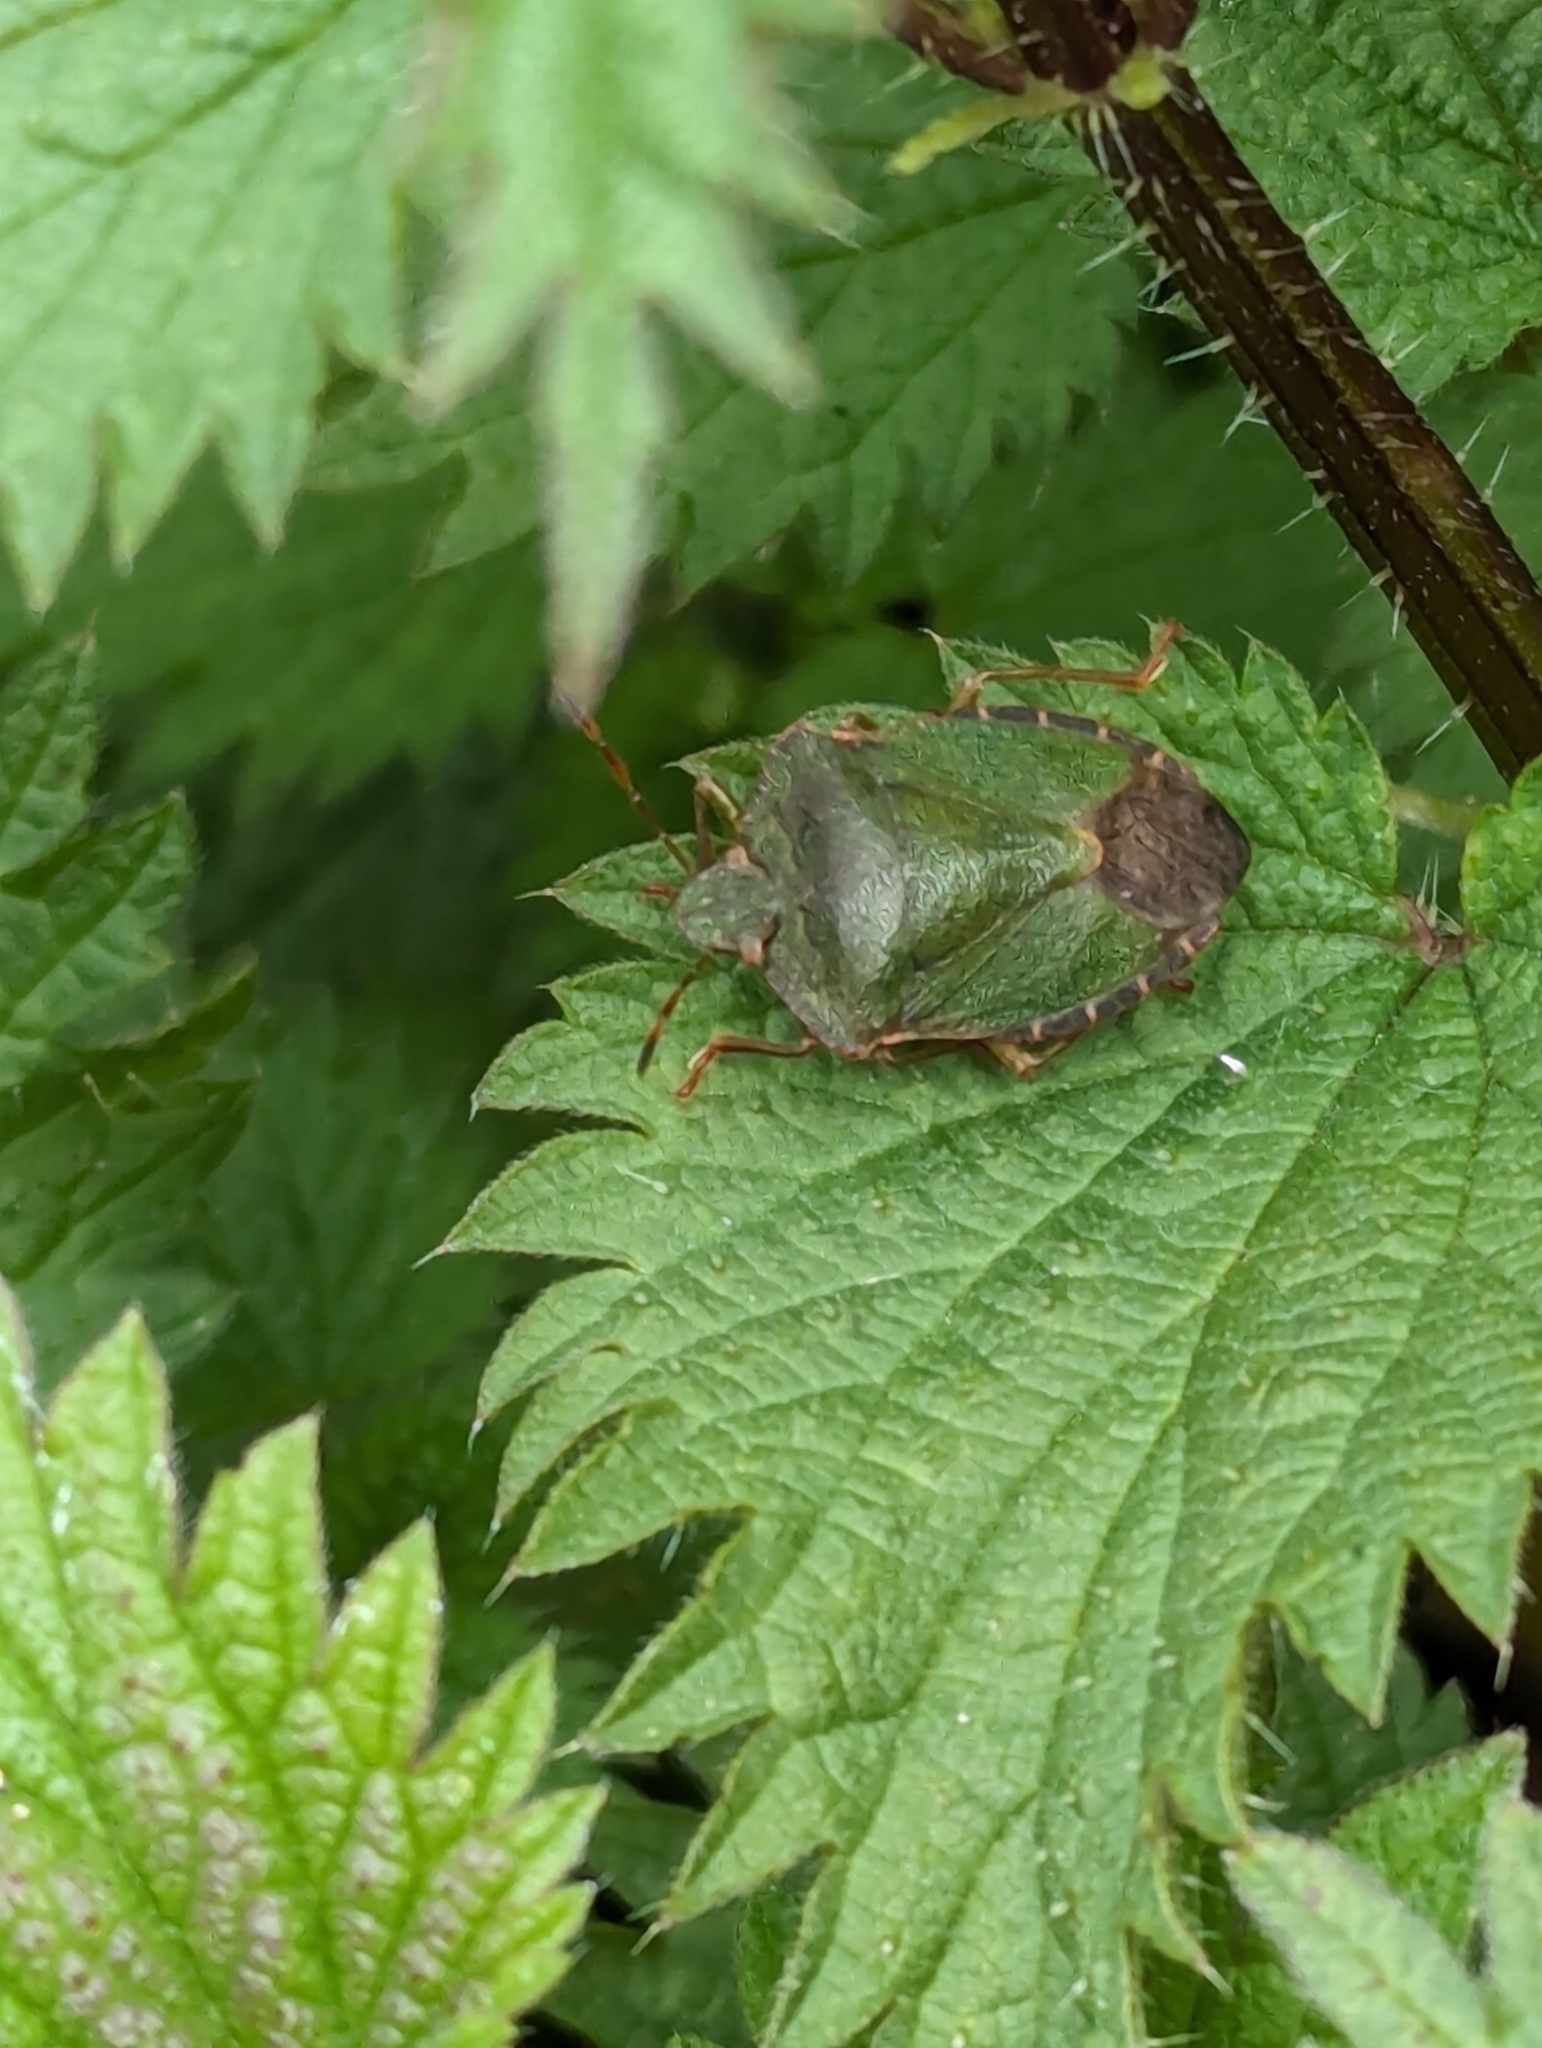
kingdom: Animalia
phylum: Arthropoda
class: Insecta
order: Hemiptera
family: Pentatomidae
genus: Palomena
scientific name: Palomena prasina
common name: Green shieldbug
